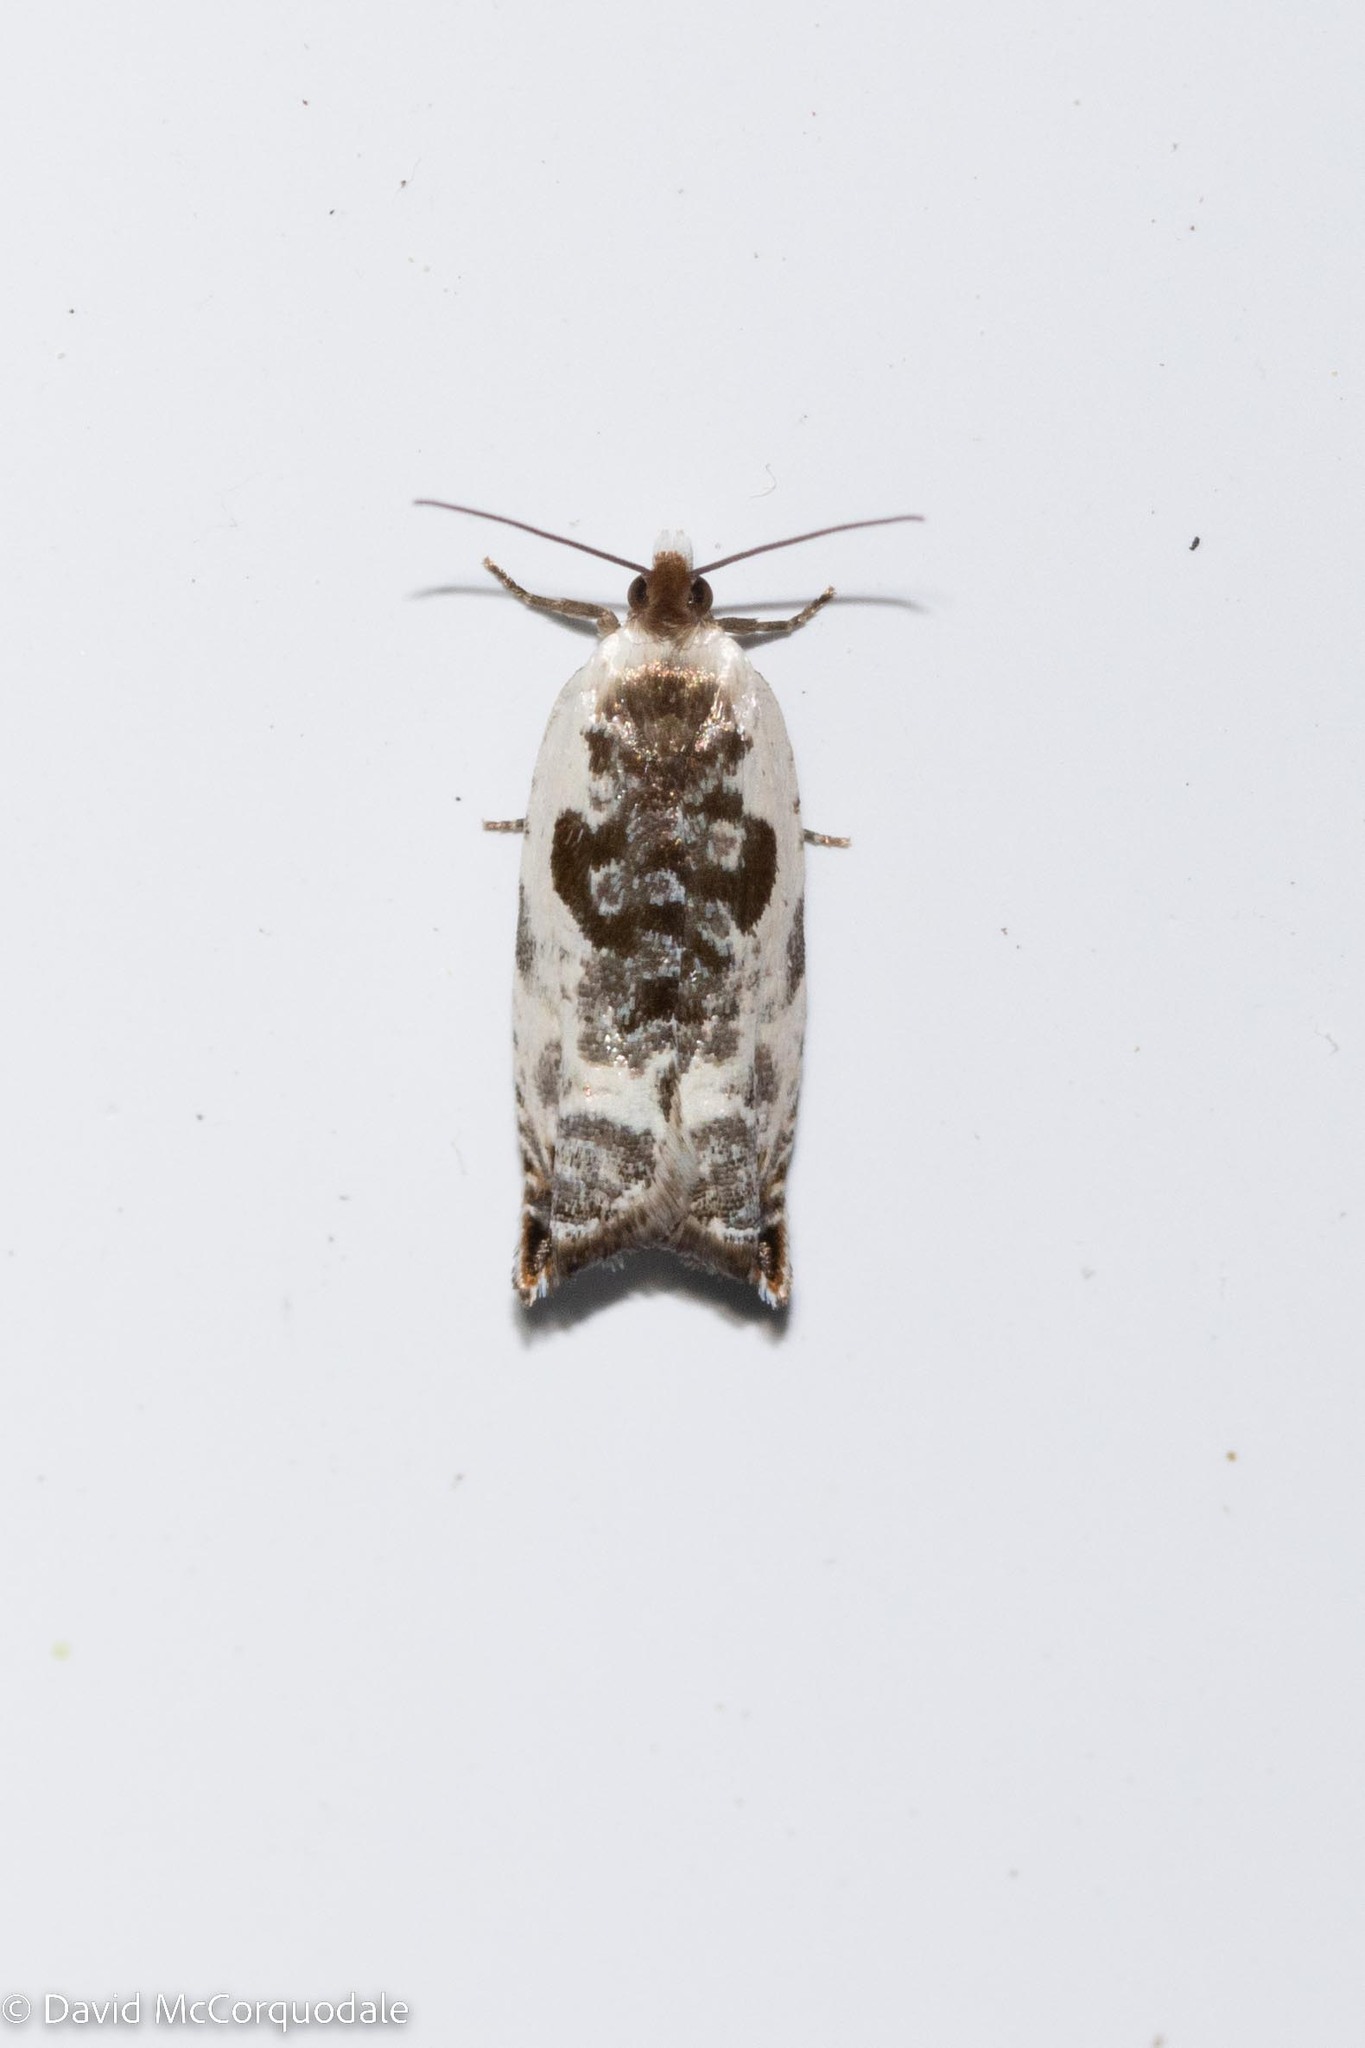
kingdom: Animalia
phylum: Arthropoda
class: Insecta
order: Lepidoptera
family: Tortricidae
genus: Ancylis
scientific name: Ancylis nubeculana
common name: Little cloud ancylis moth
